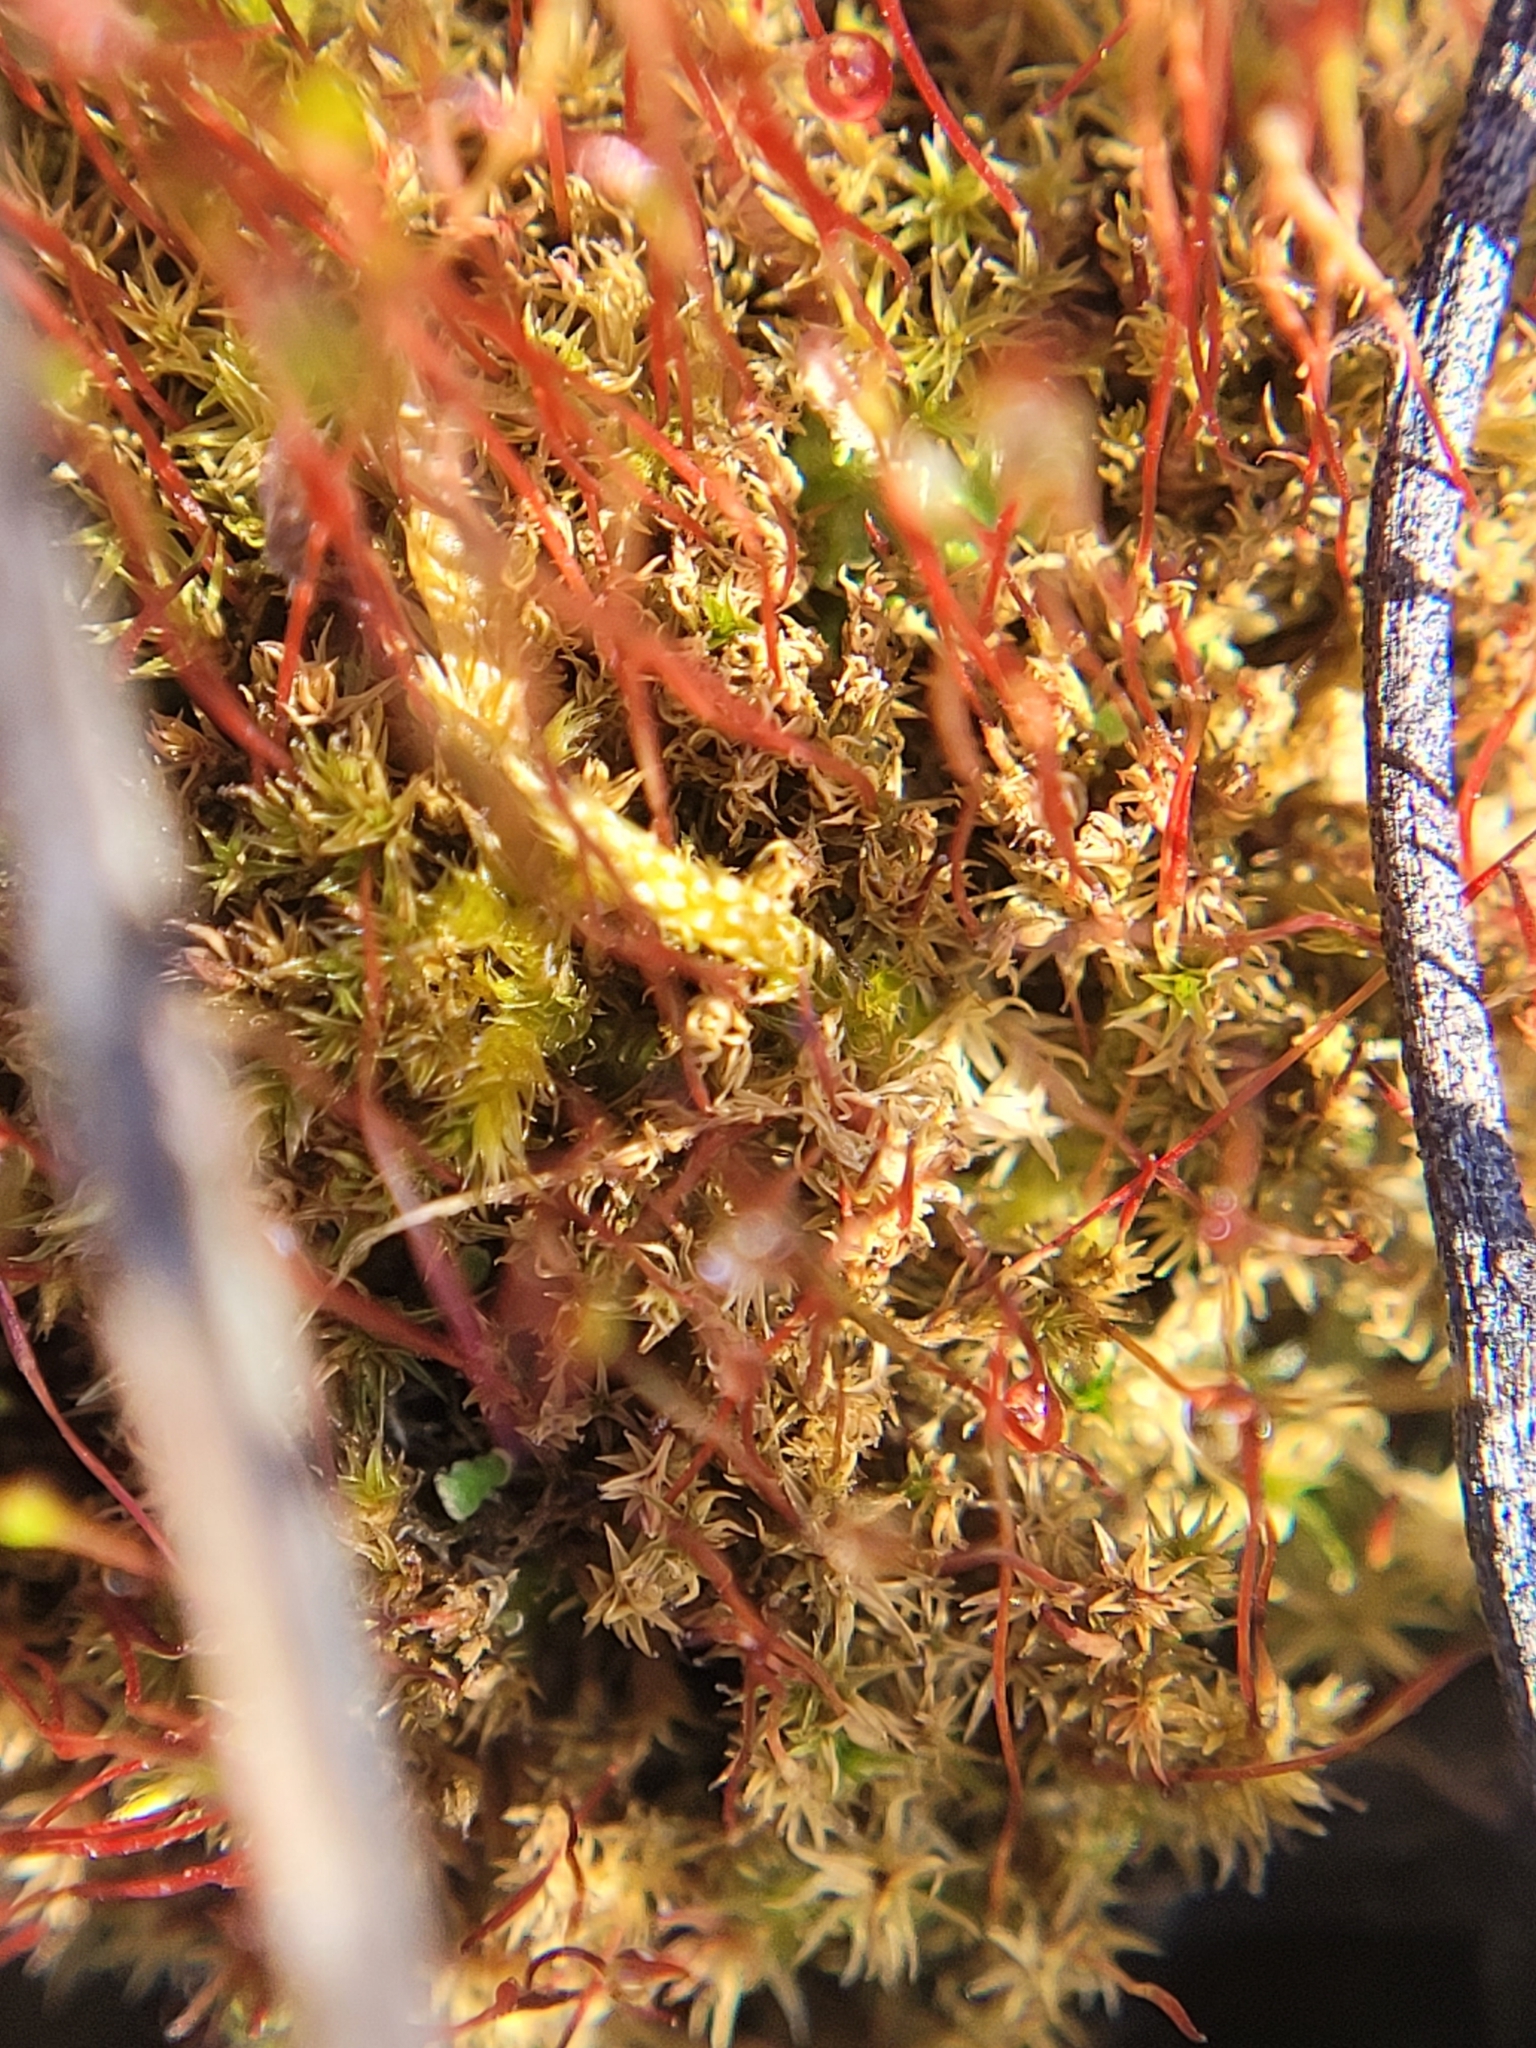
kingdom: Plantae
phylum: Bryophyta
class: Bryopsida
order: Dicranales
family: Ditrichaceae
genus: Ceratodon
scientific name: Ceratodon purpureus
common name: Redshank
